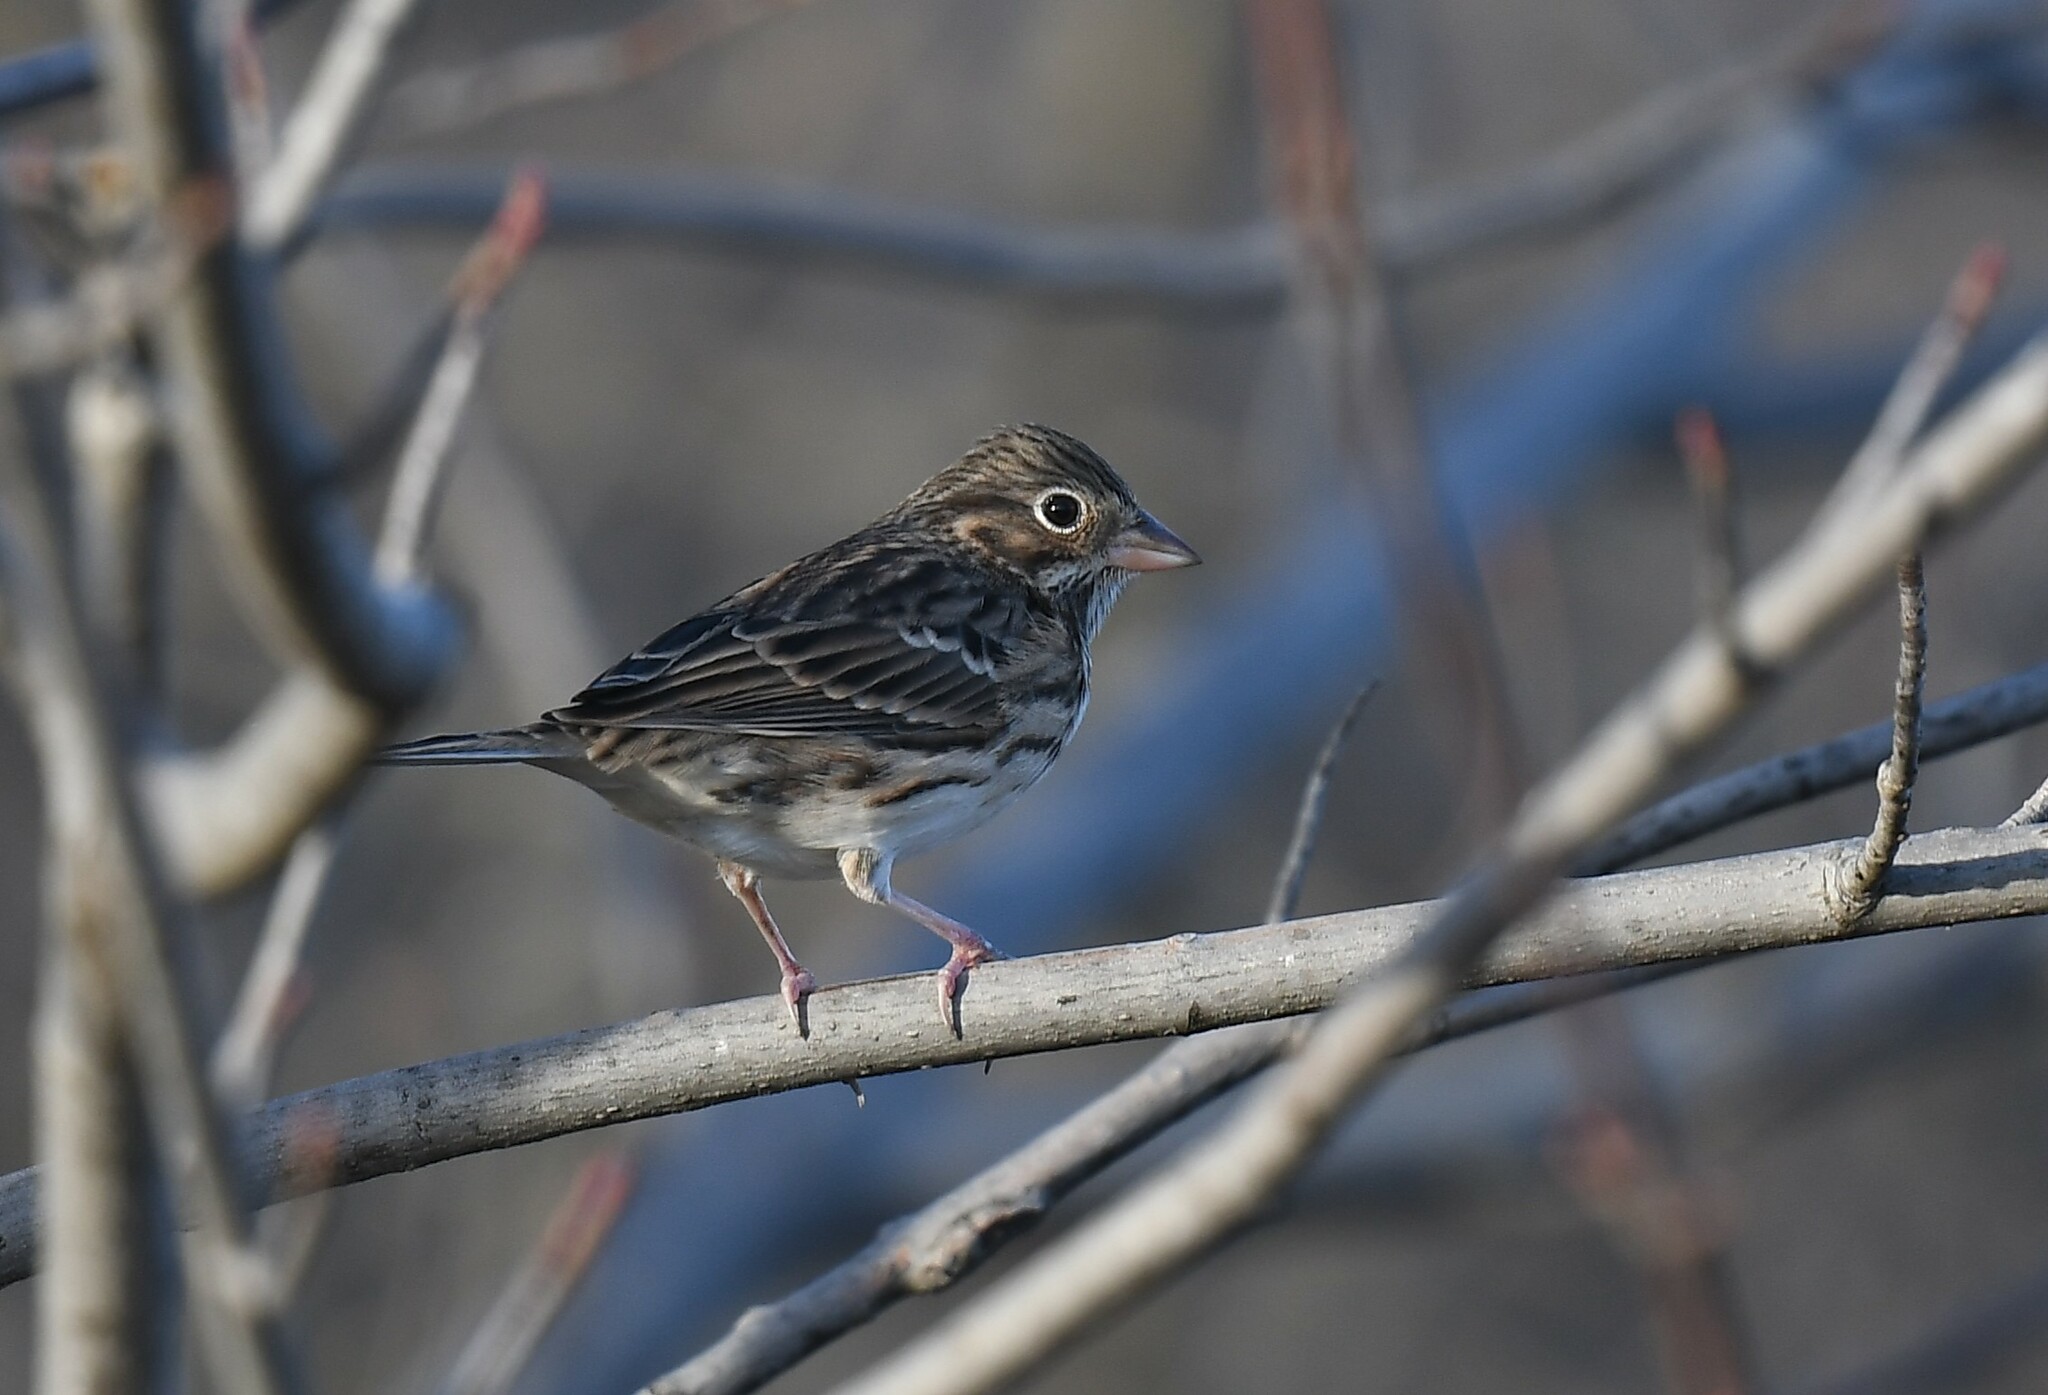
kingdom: Animalia
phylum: Chordata
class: Aves
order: Passeriformes
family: Passerellidae
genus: Pooecetes
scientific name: Pooecetes gramineus
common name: Vesper sparrow
